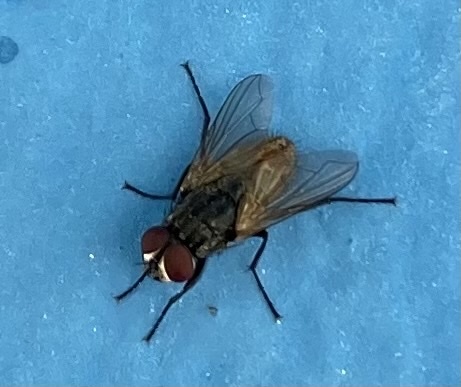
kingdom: Animalia
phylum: Arthropoda
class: Insecta
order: Diptera
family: Muscidae
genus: Musca
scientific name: Musca domestica
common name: House fly
